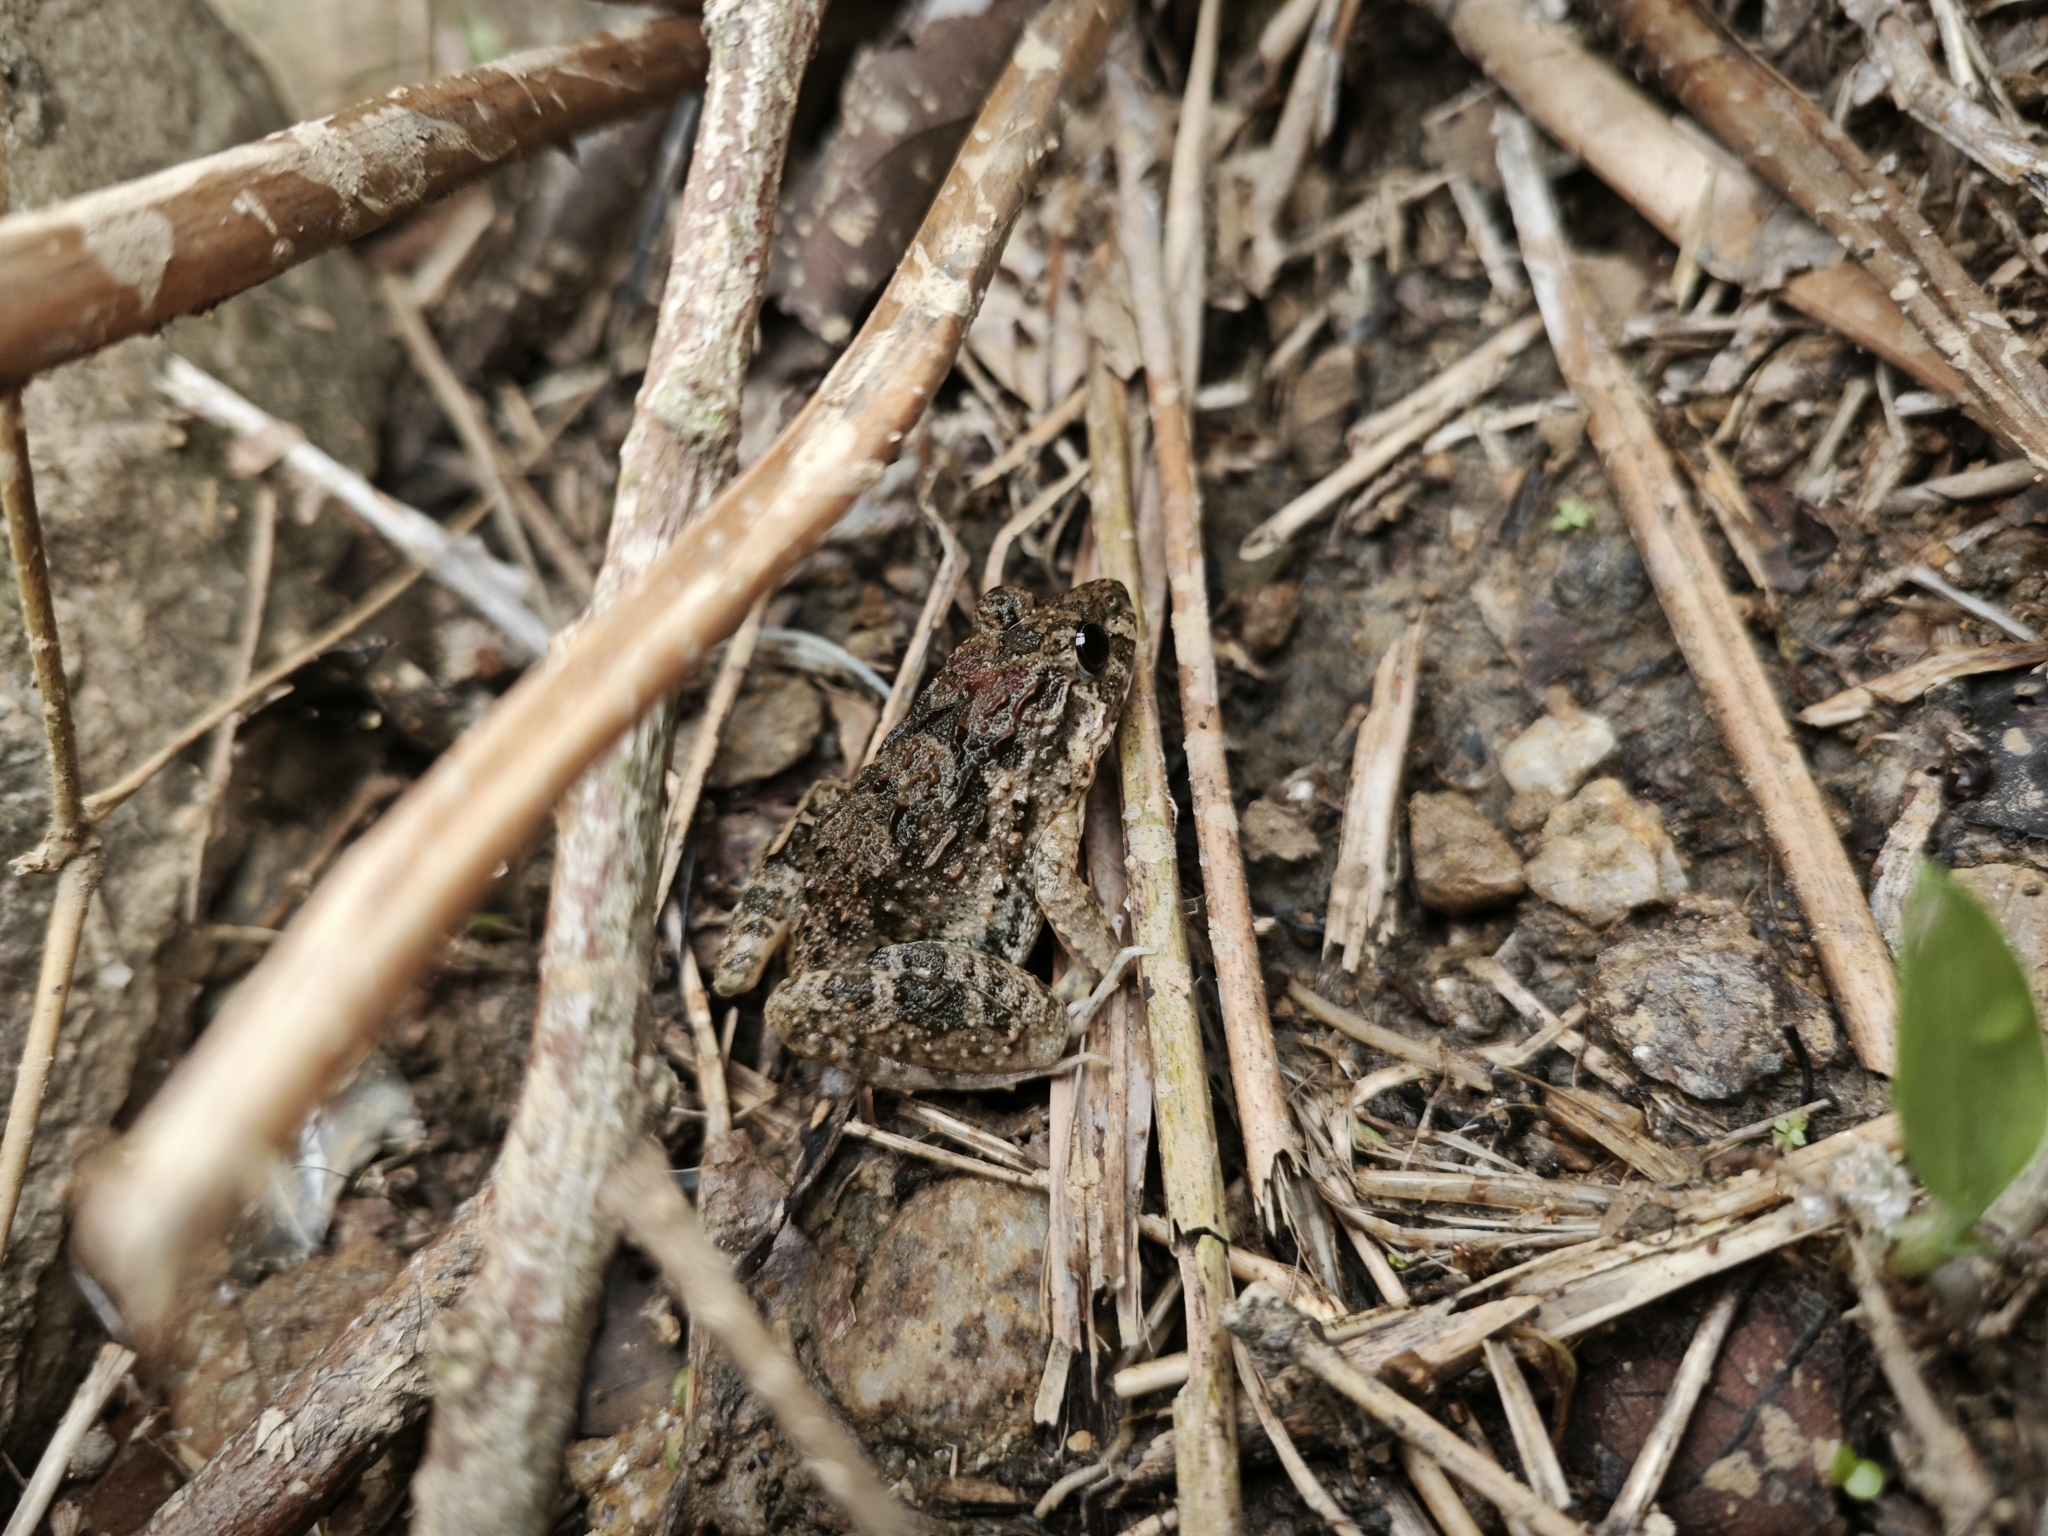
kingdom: Animalia
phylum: Chordata
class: Amphibia
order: Anura
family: Dicroglossidae
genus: Fejervarya
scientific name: Fejervarya multistriata
